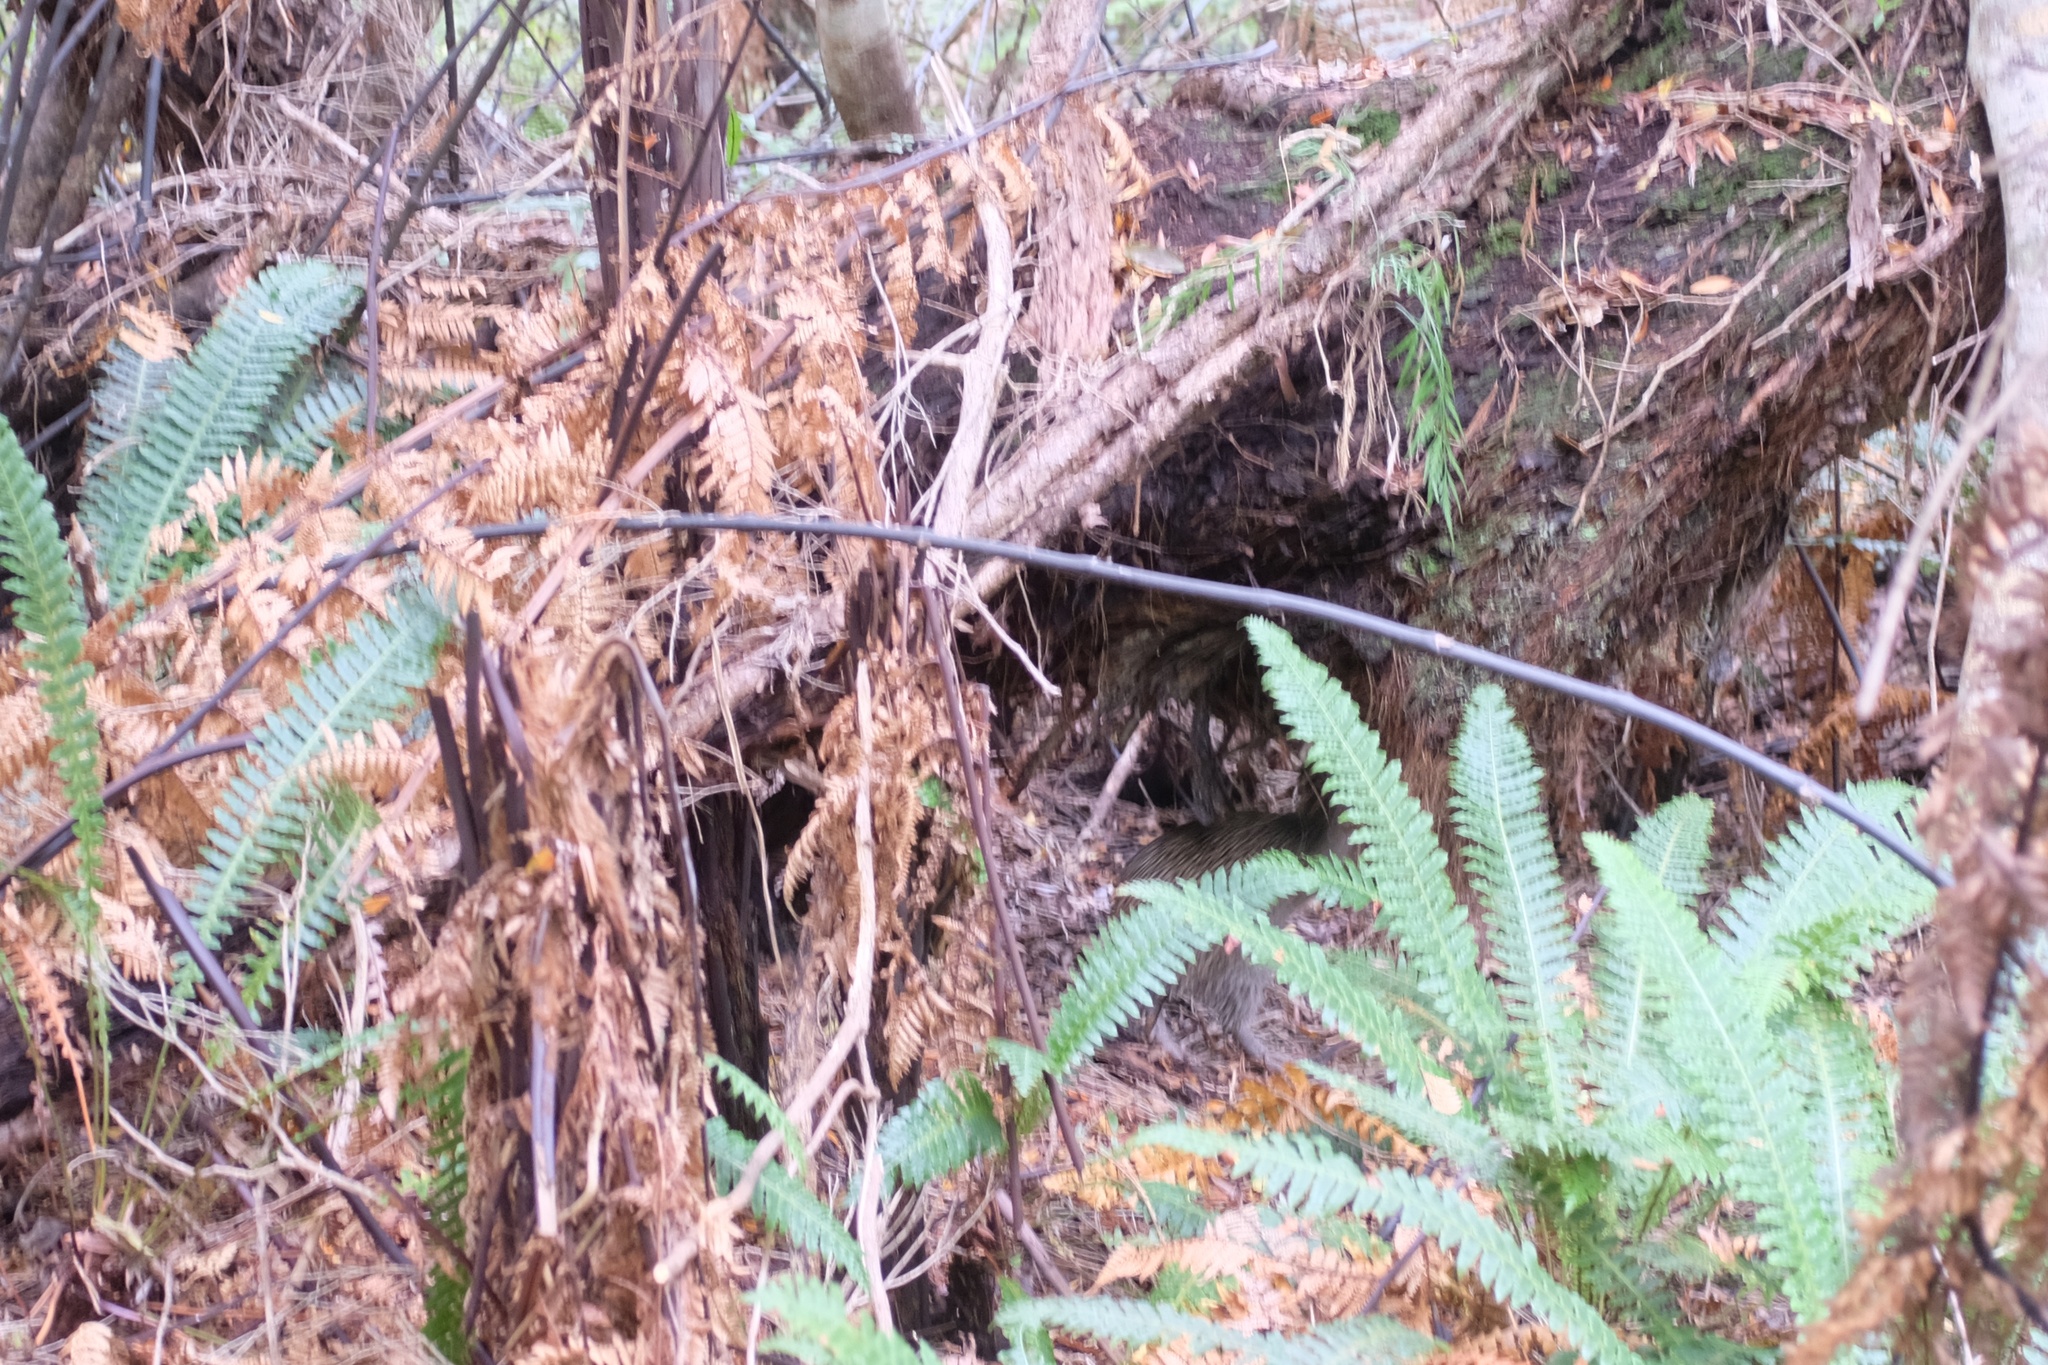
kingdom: Animalia
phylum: Chordata
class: Aves
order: Apterygiformes
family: Apterygidae
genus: Apteryx
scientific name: Apteryx australis
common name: Southern brown kiwi
